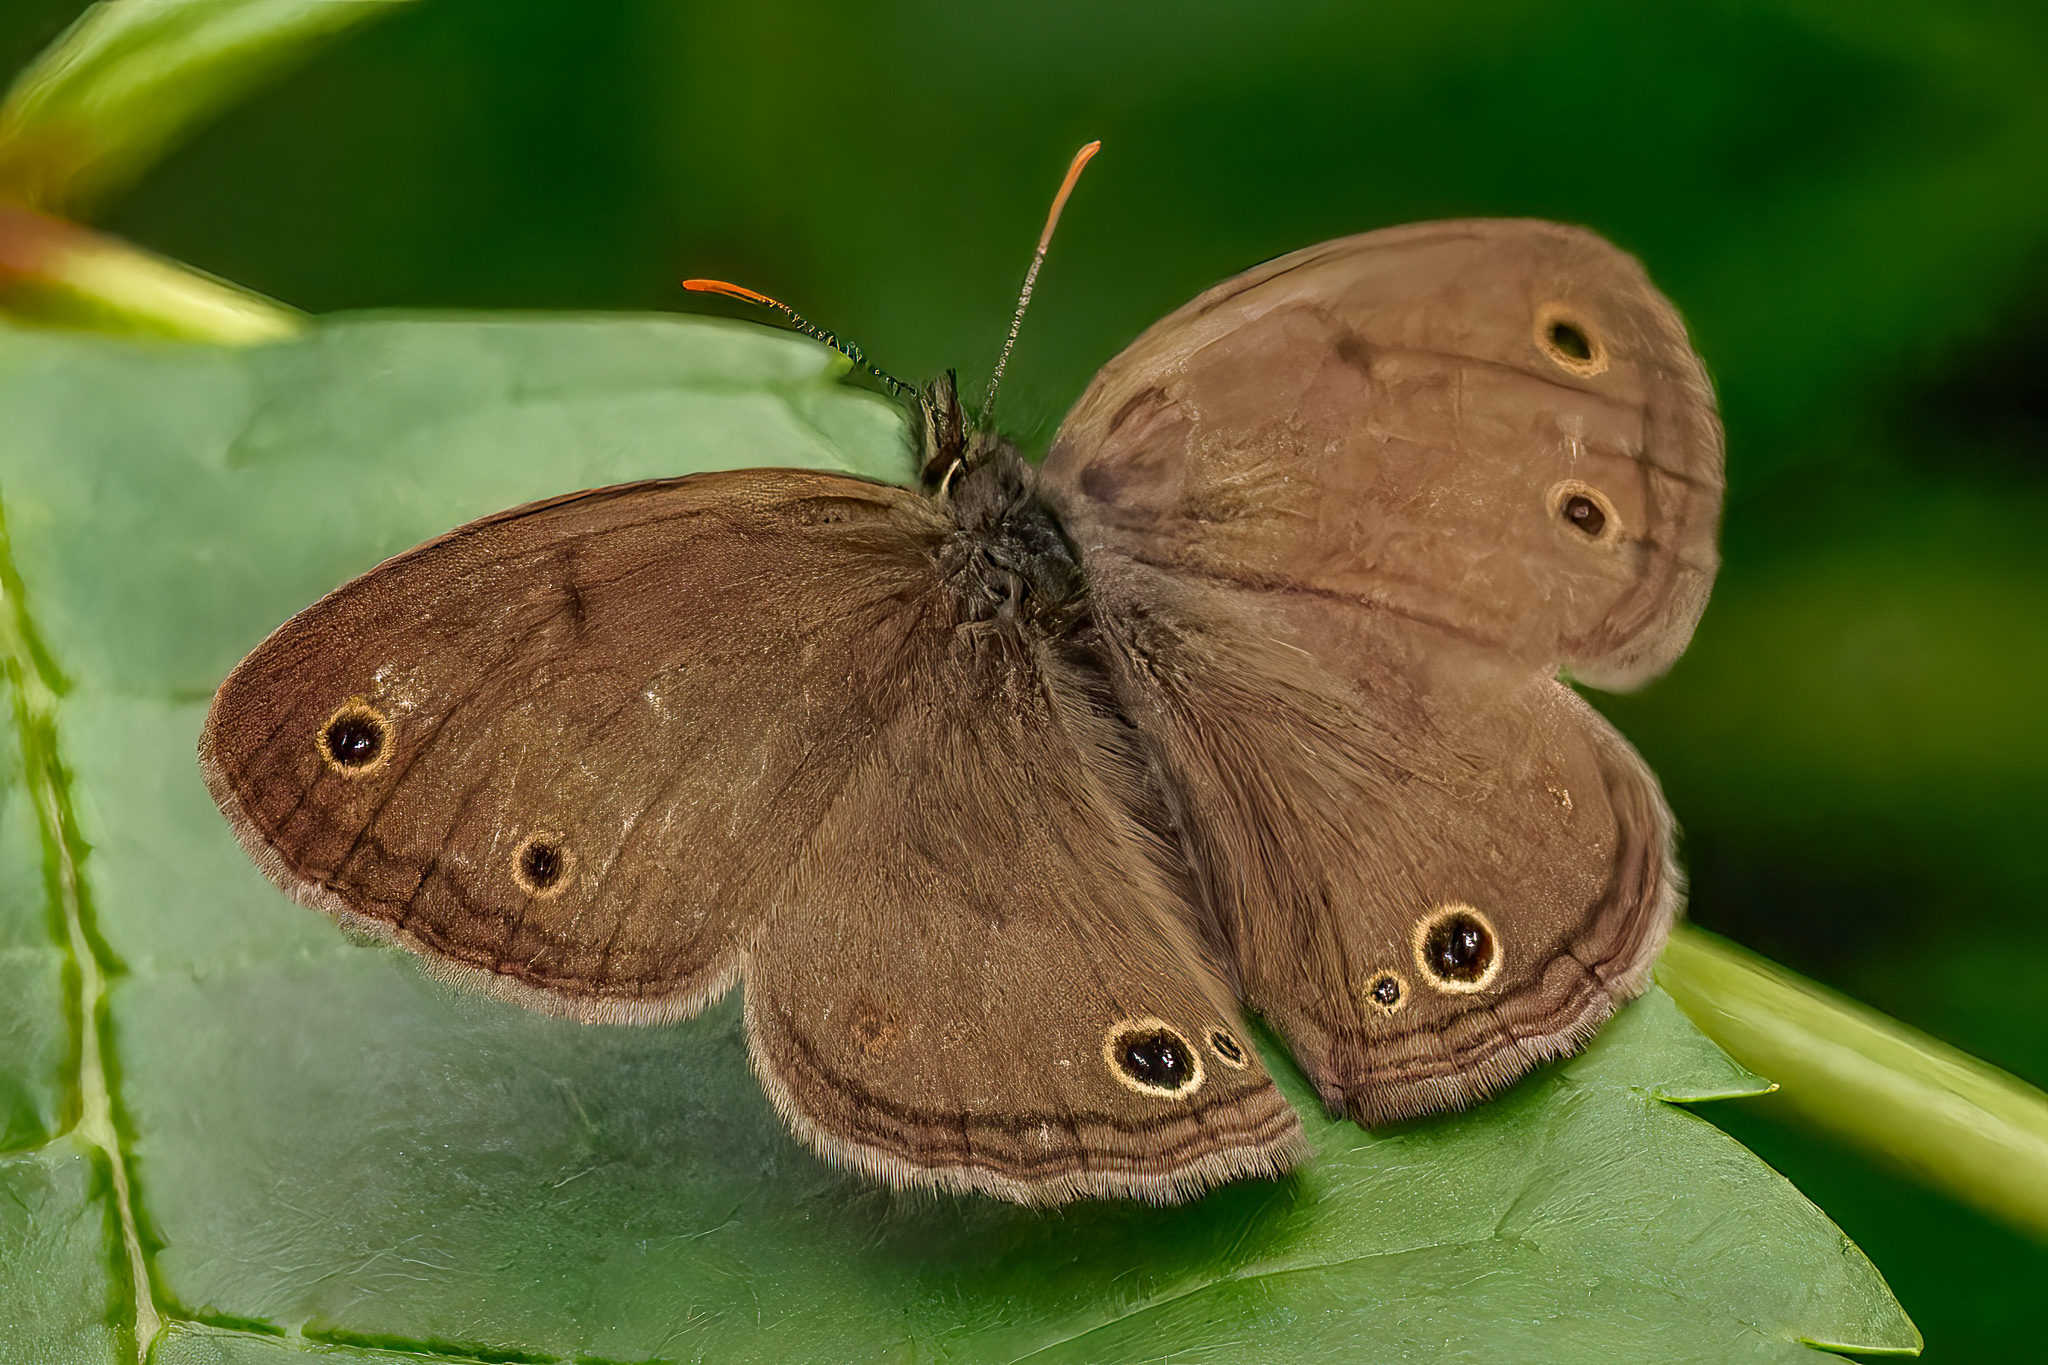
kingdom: Animalia
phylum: Arthropoda
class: Insecta
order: Lepidoptera
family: Nymphalidae
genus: Euptychia
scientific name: Euptychia cymela
